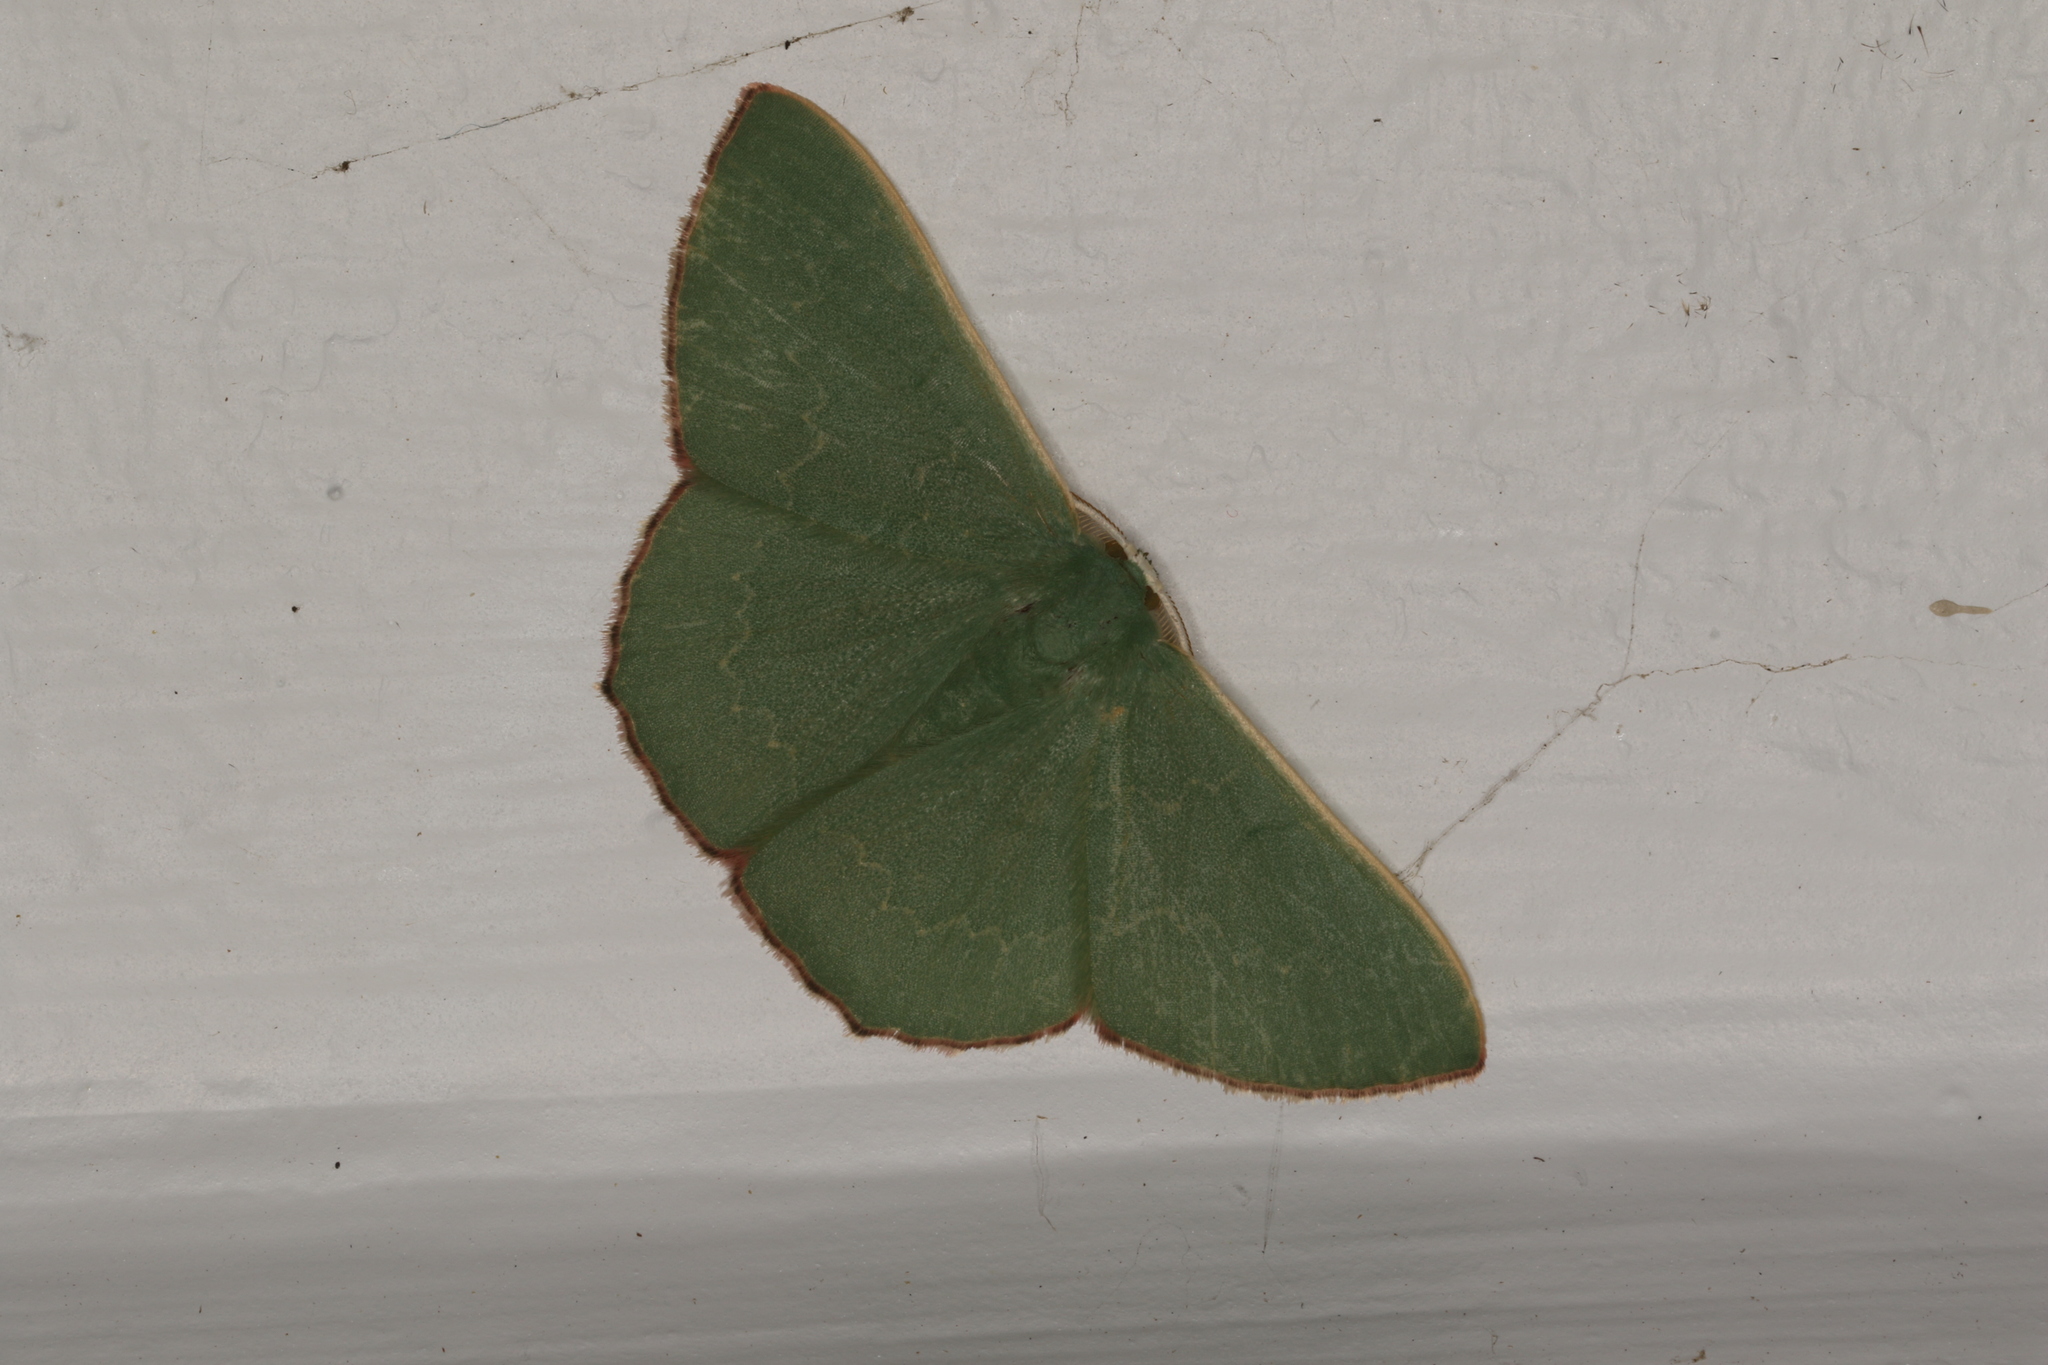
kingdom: Animalia
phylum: Arthropoda
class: Insecta
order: Lepidoptera
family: Geometridae
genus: Prasinocyma
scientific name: Prasinocyma semicrocea
